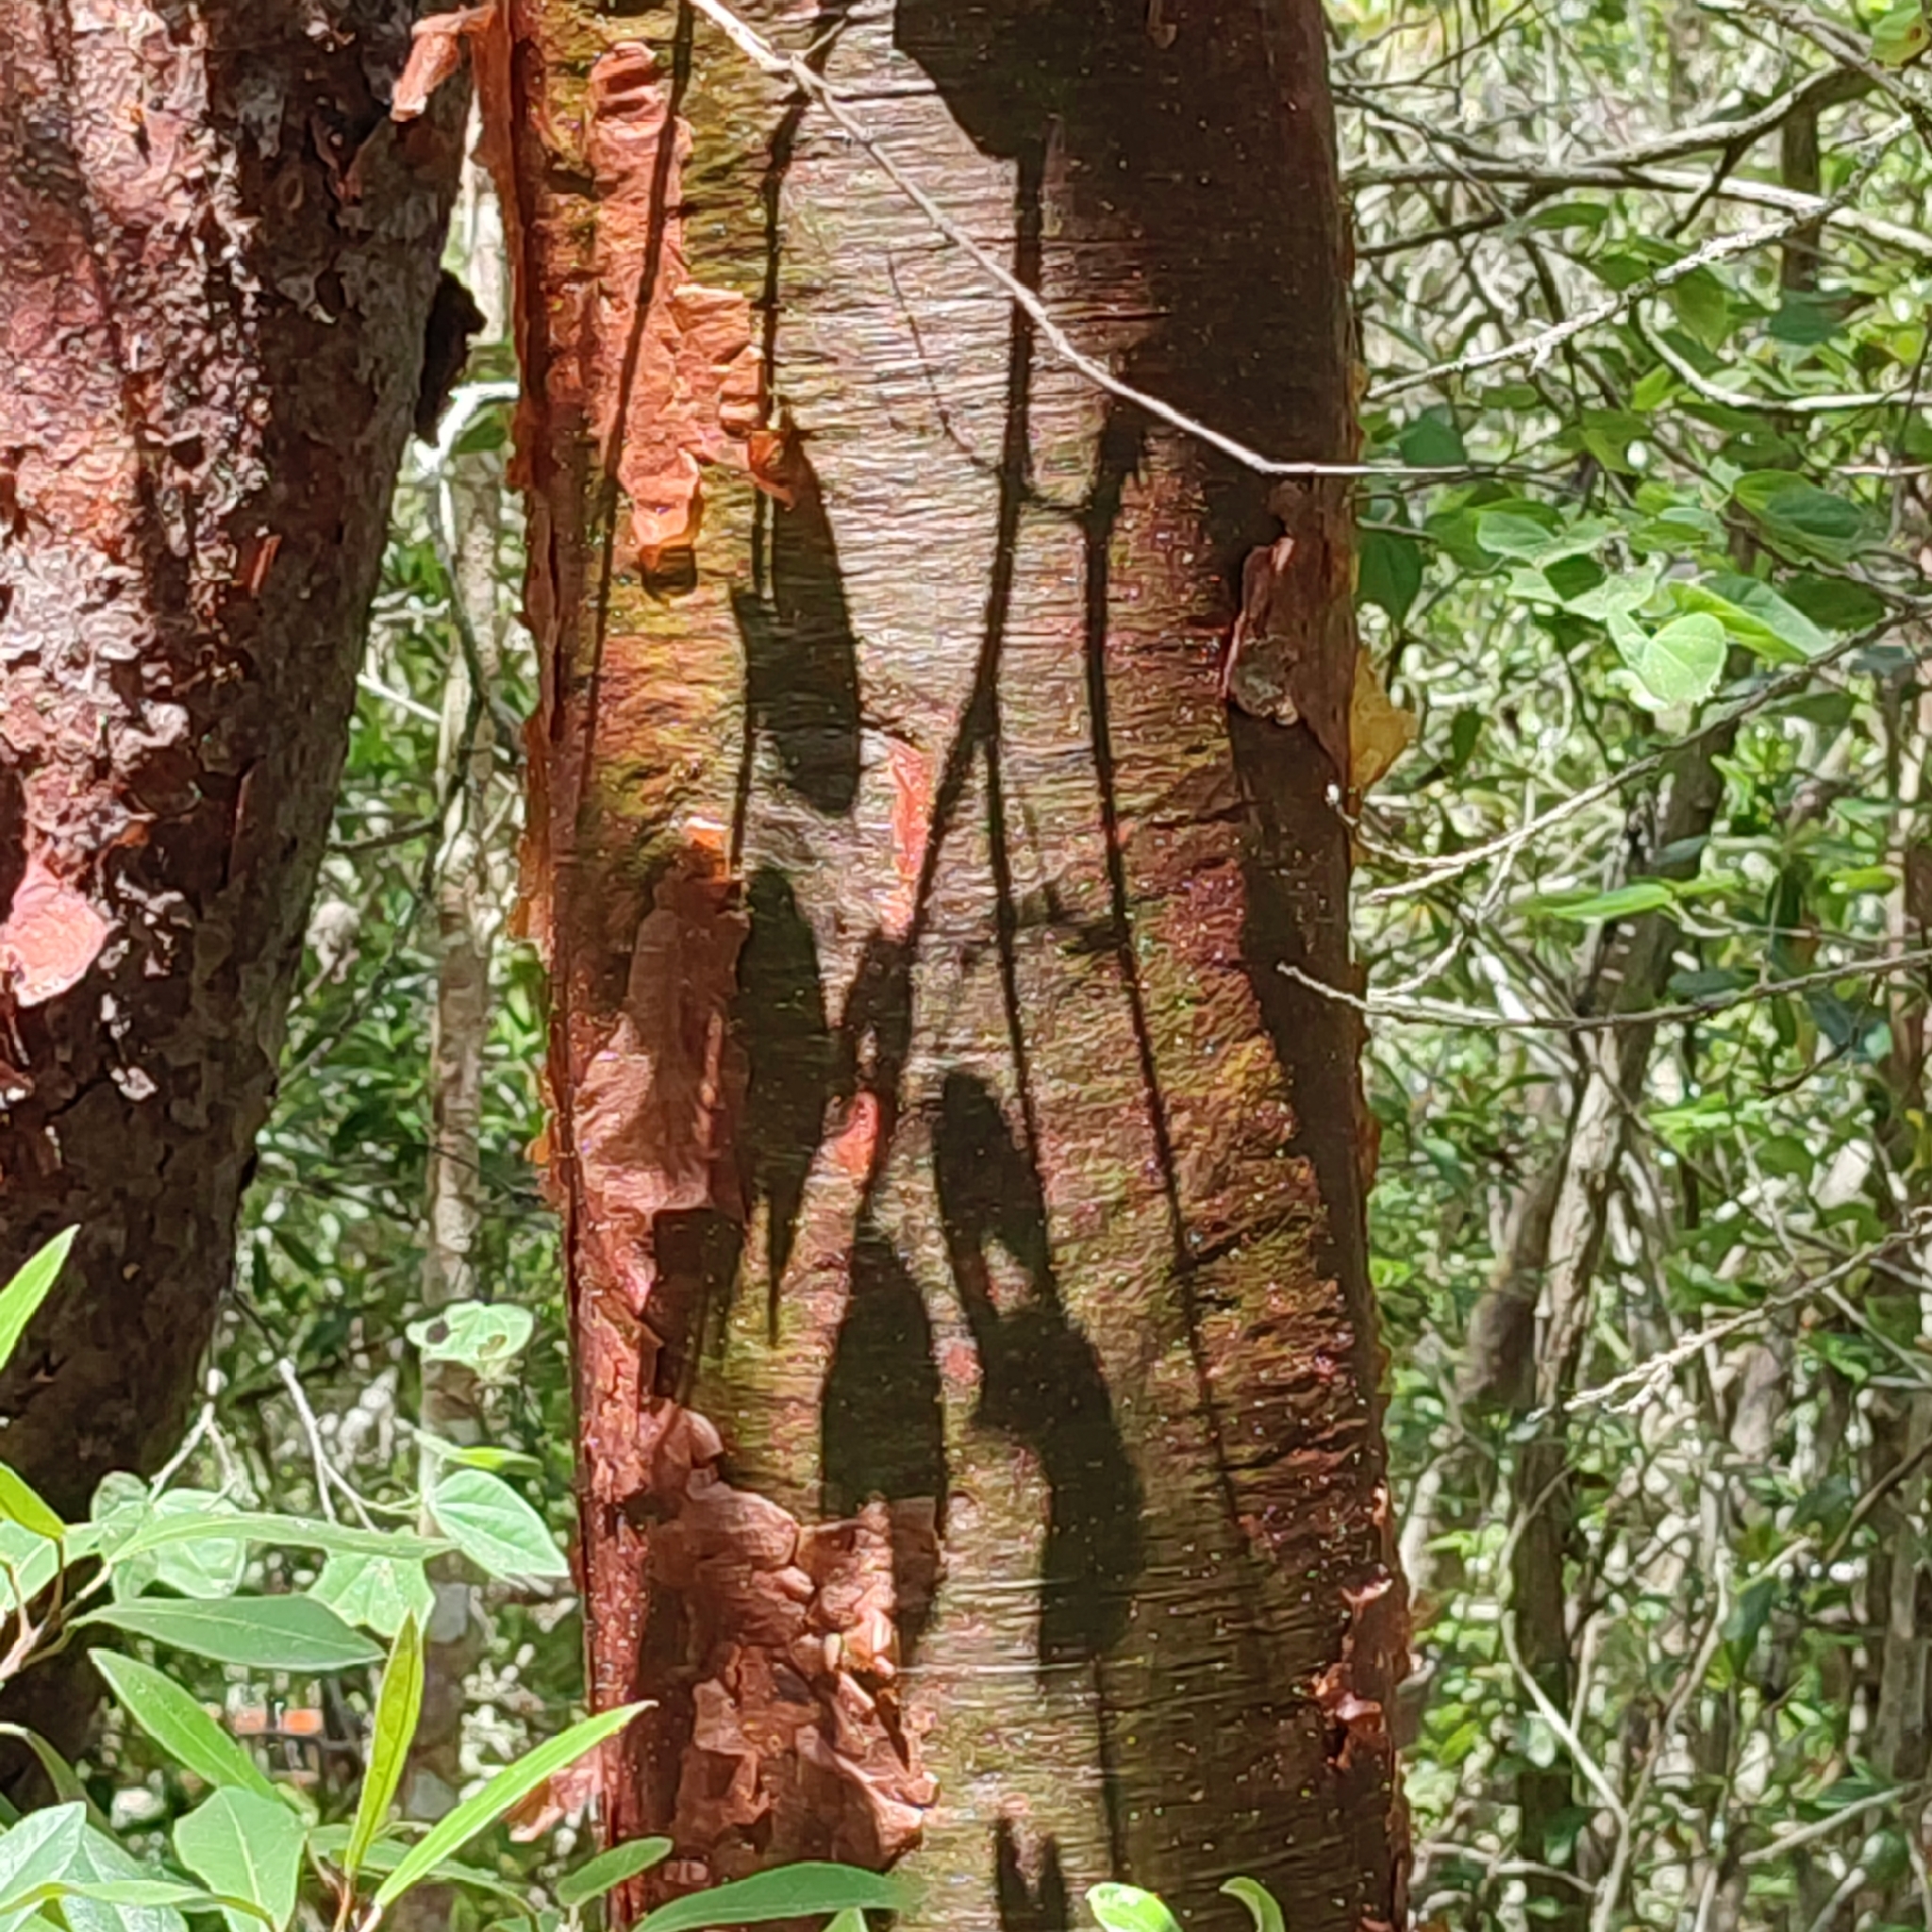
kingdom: Plantae
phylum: Tracheophyta
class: Magnoliopsida
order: Sapindales
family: Burseraceae
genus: Bursera
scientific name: Bursera simaruba
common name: Turpentine tree
